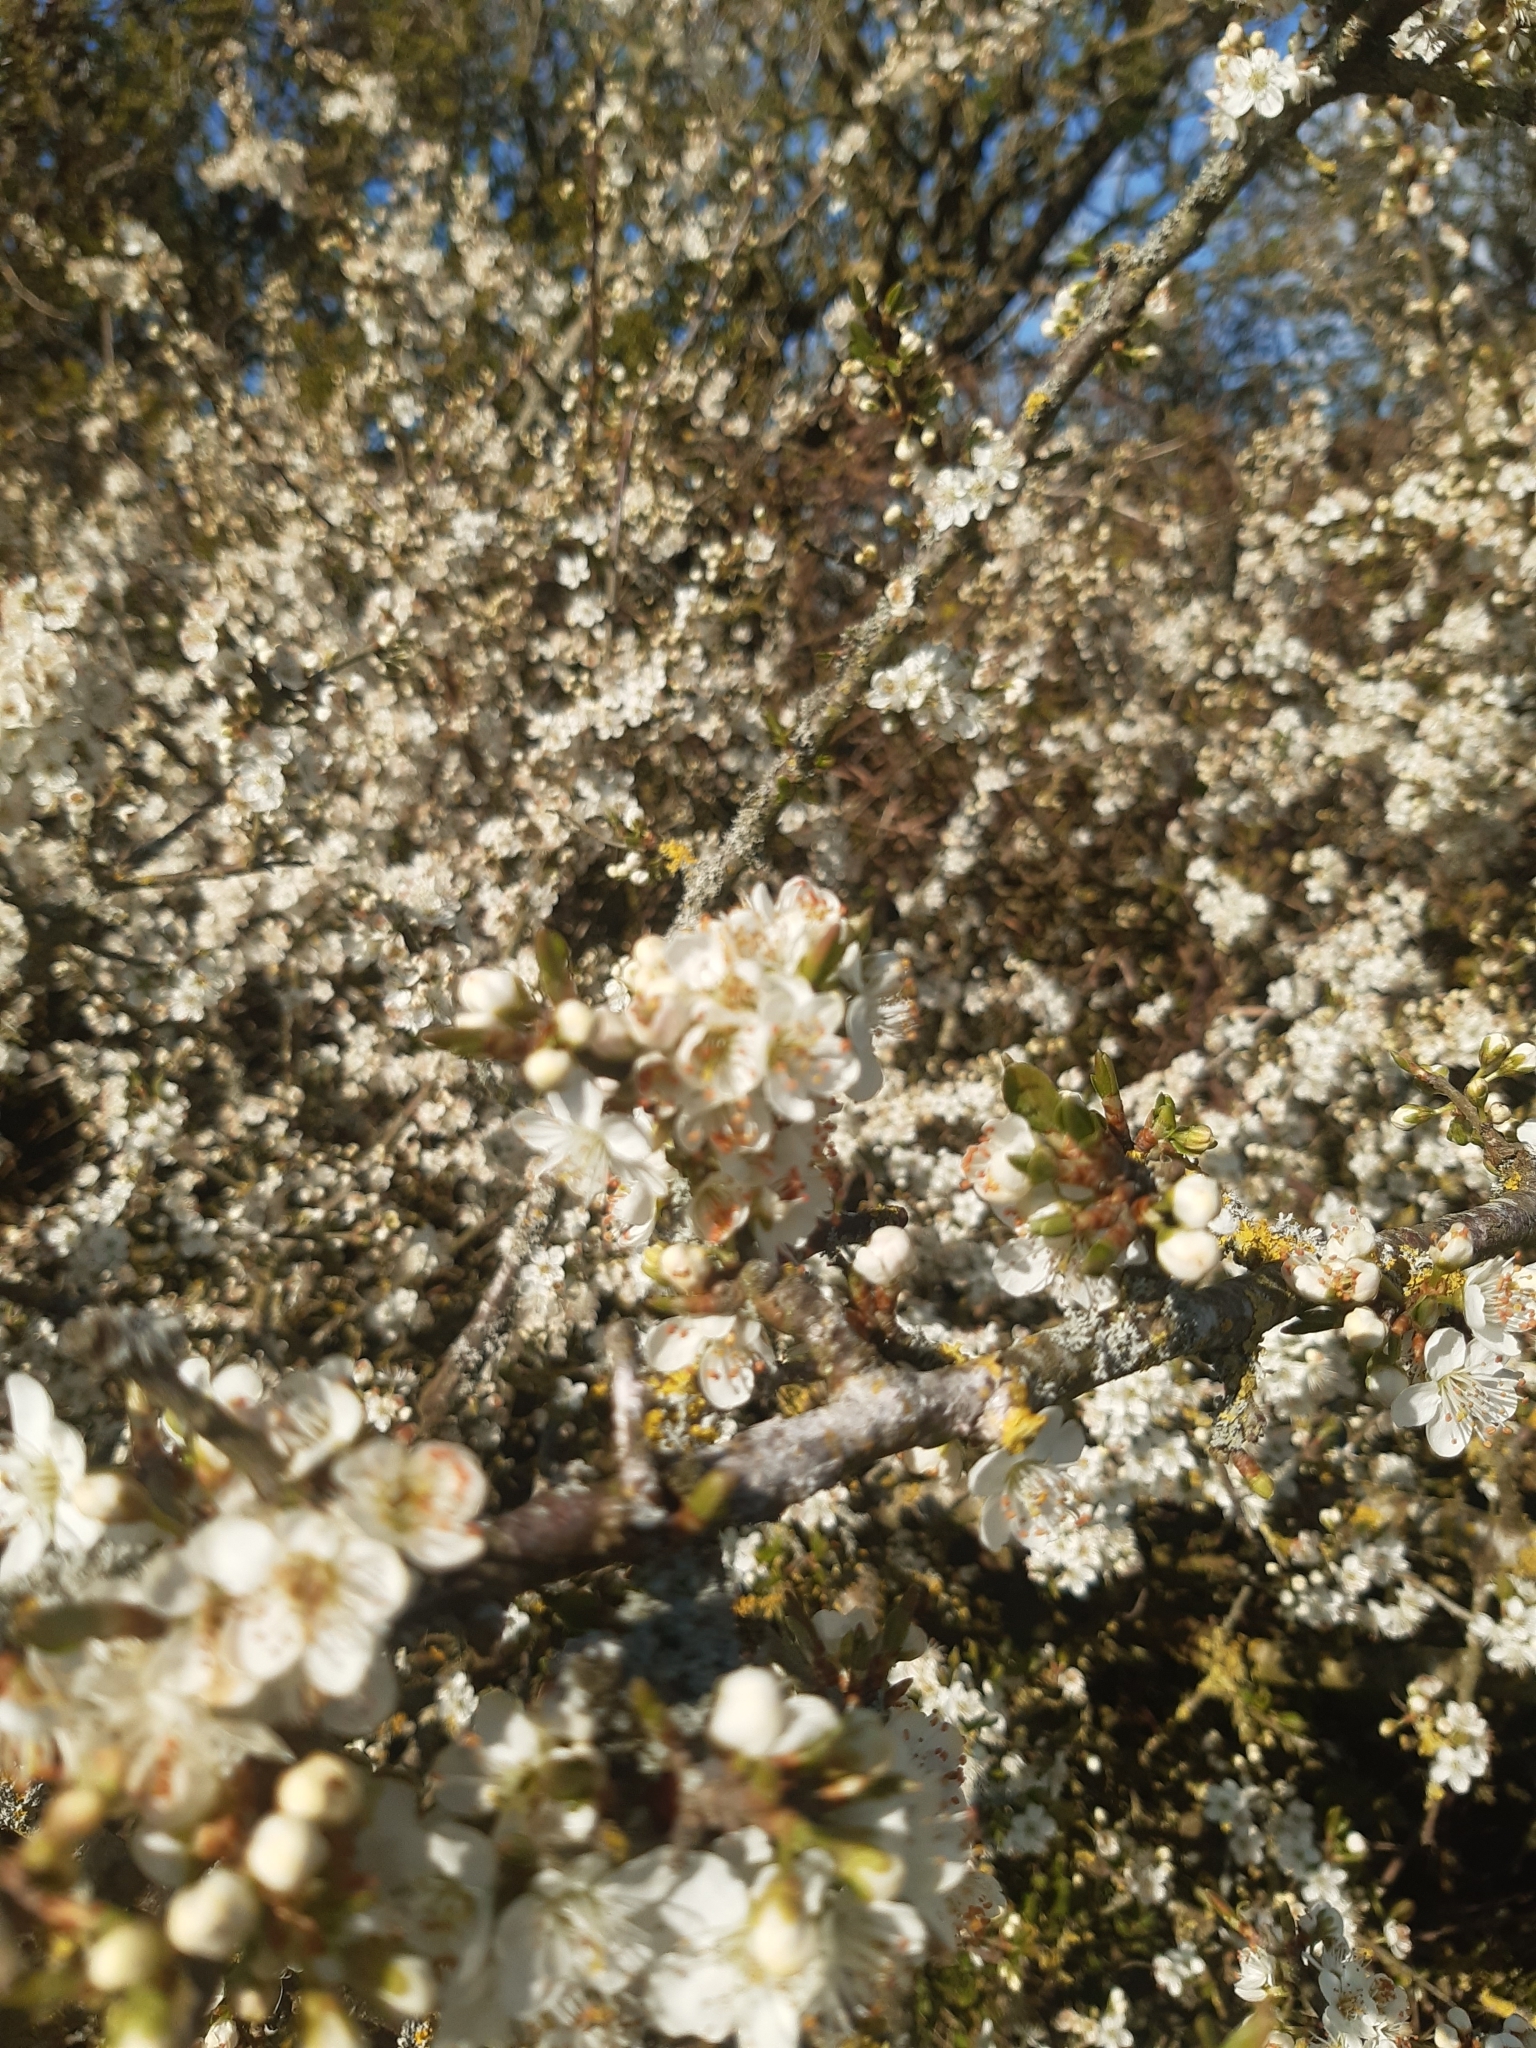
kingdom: Plantae
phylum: Tracheophyta
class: Magnoliopsida
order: Rosales
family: Rosaceae
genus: Prunus
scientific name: Prunus domestica
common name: Wild plum
